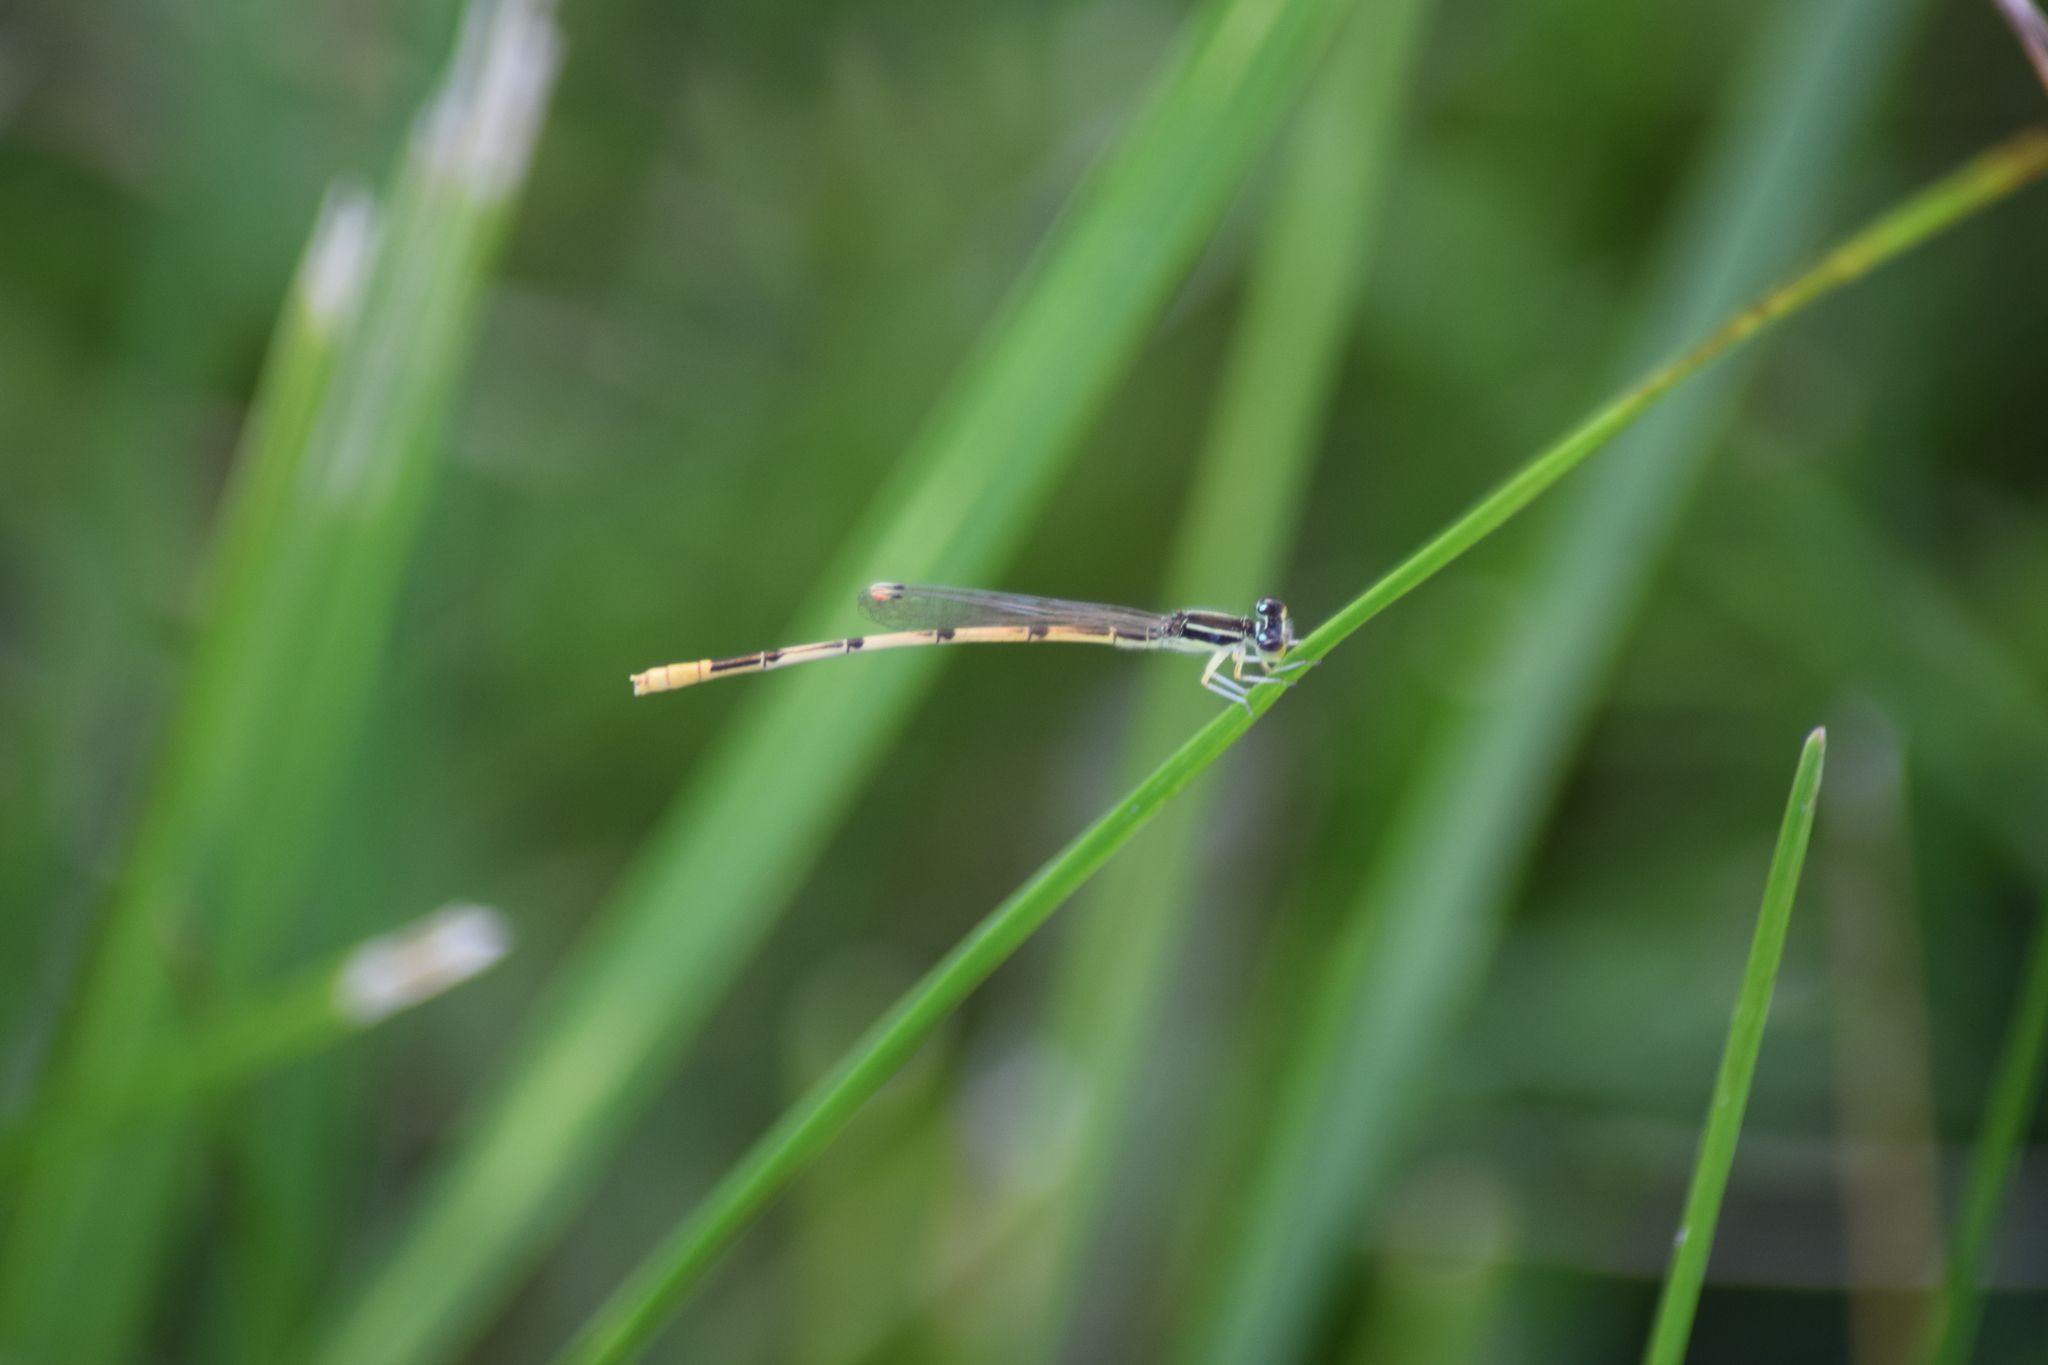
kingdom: Animalia
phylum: Arthropoda
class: Insecta
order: Odonata
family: Coenagrionidae
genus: Ischnura
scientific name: Ischnura hastata
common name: Citrine forktail
